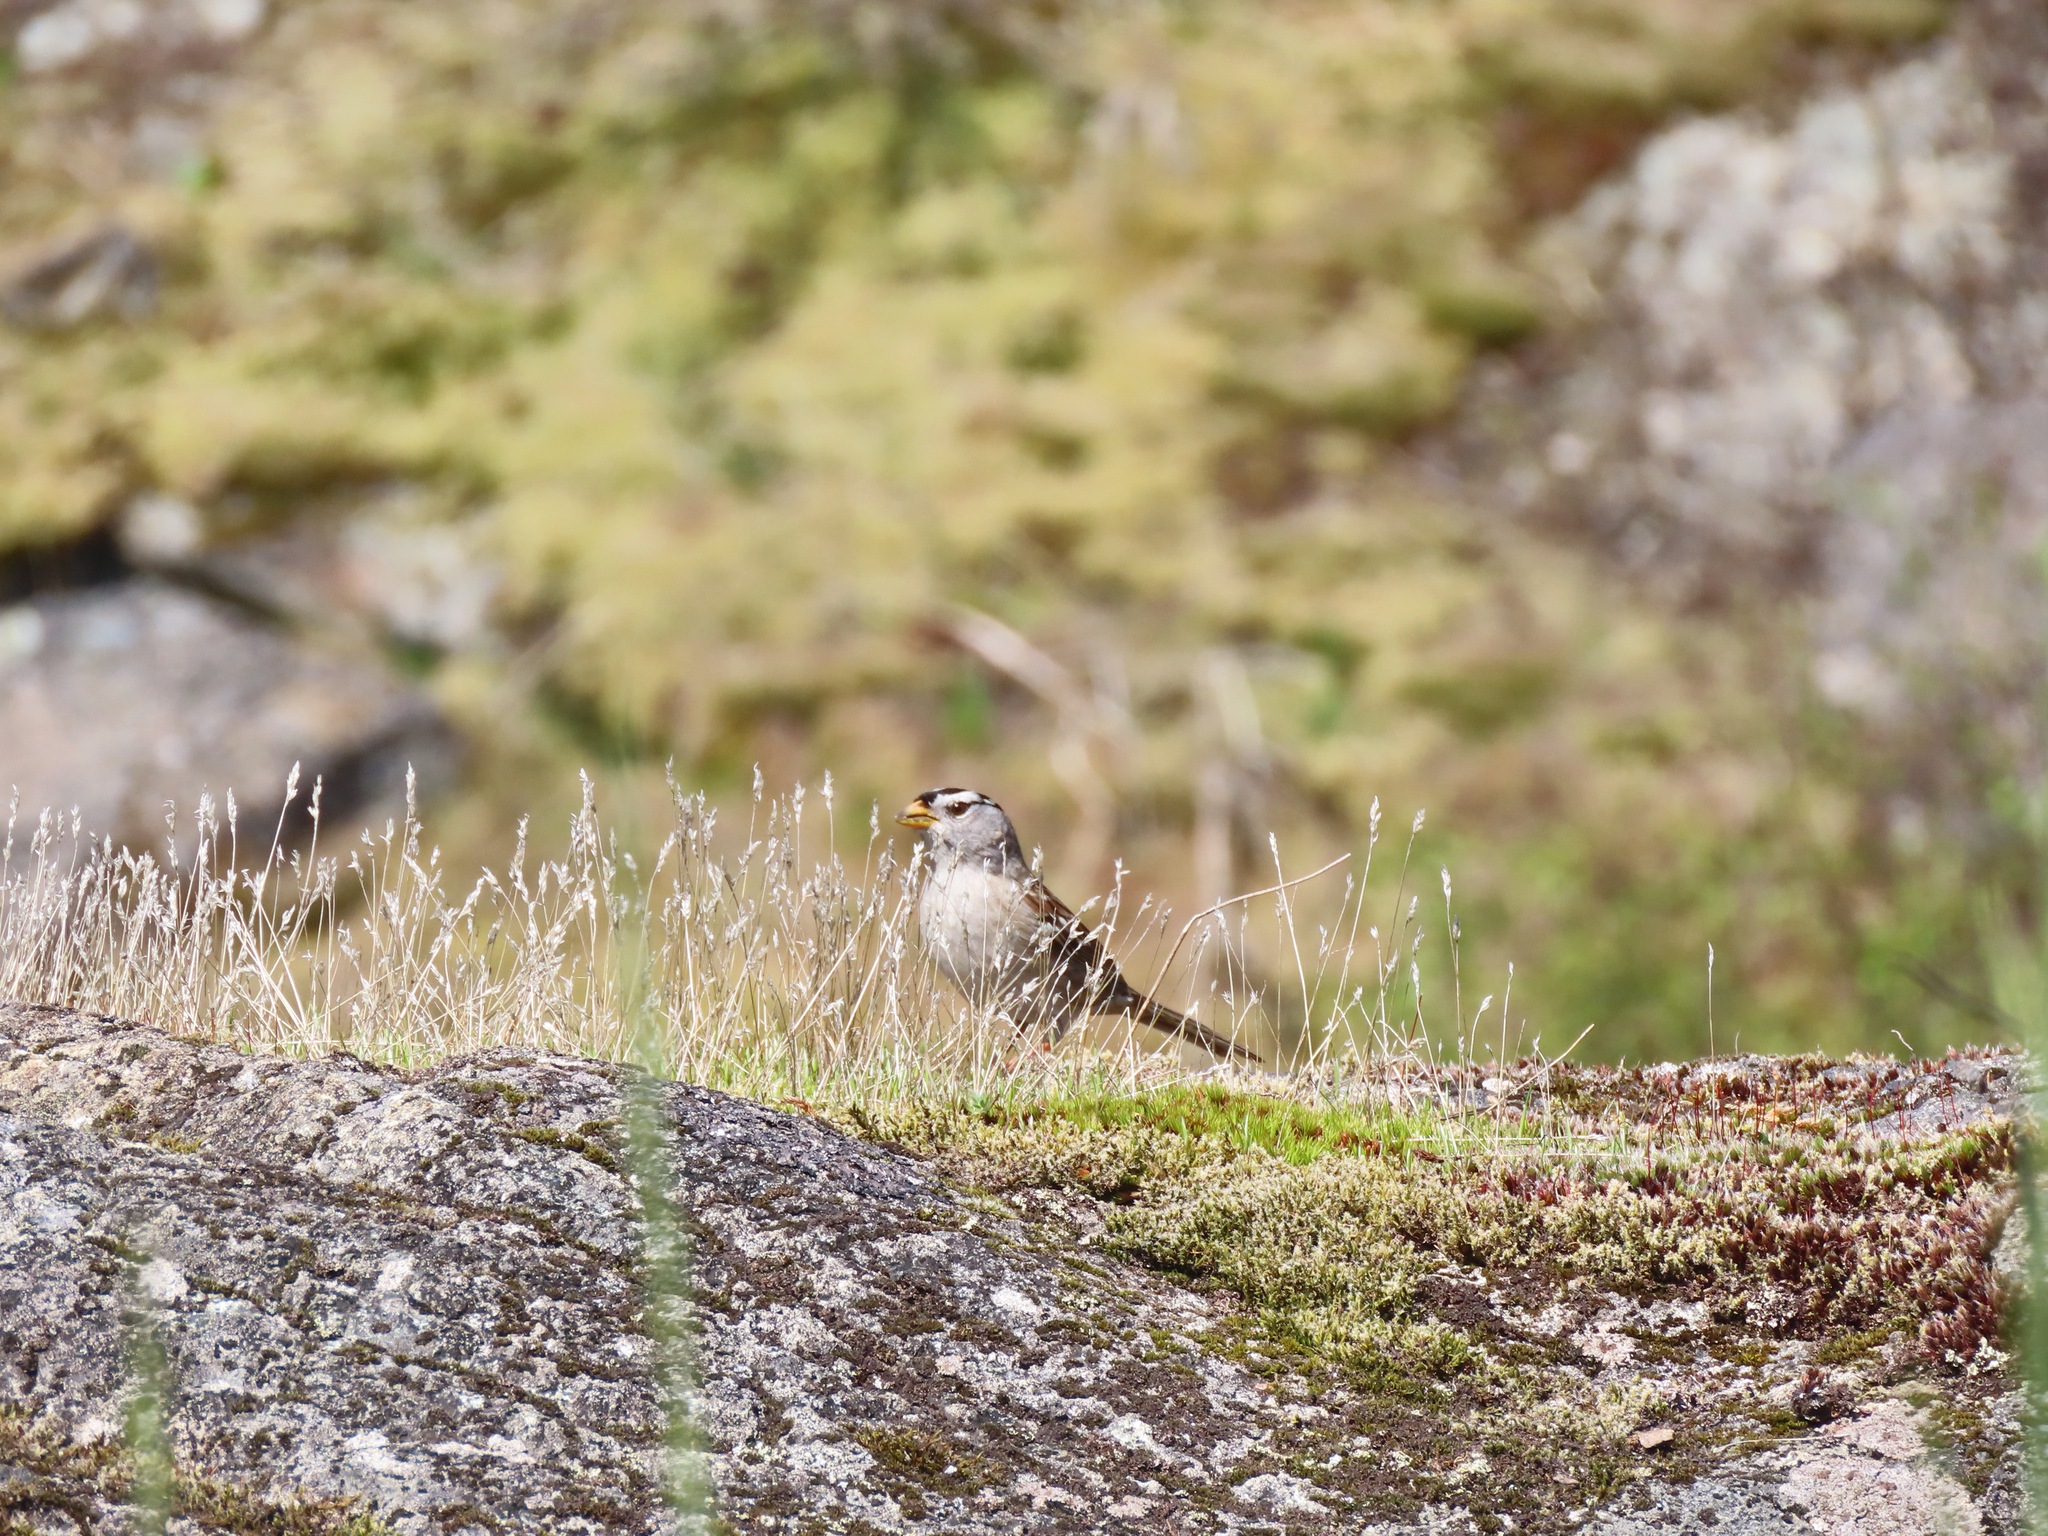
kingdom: Animalia
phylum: Chordata
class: Aves
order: Passeriformes
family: Passerellidae
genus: Zonotrichia
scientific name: Zonotrichia leucophrys
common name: White-crowned sparrow
